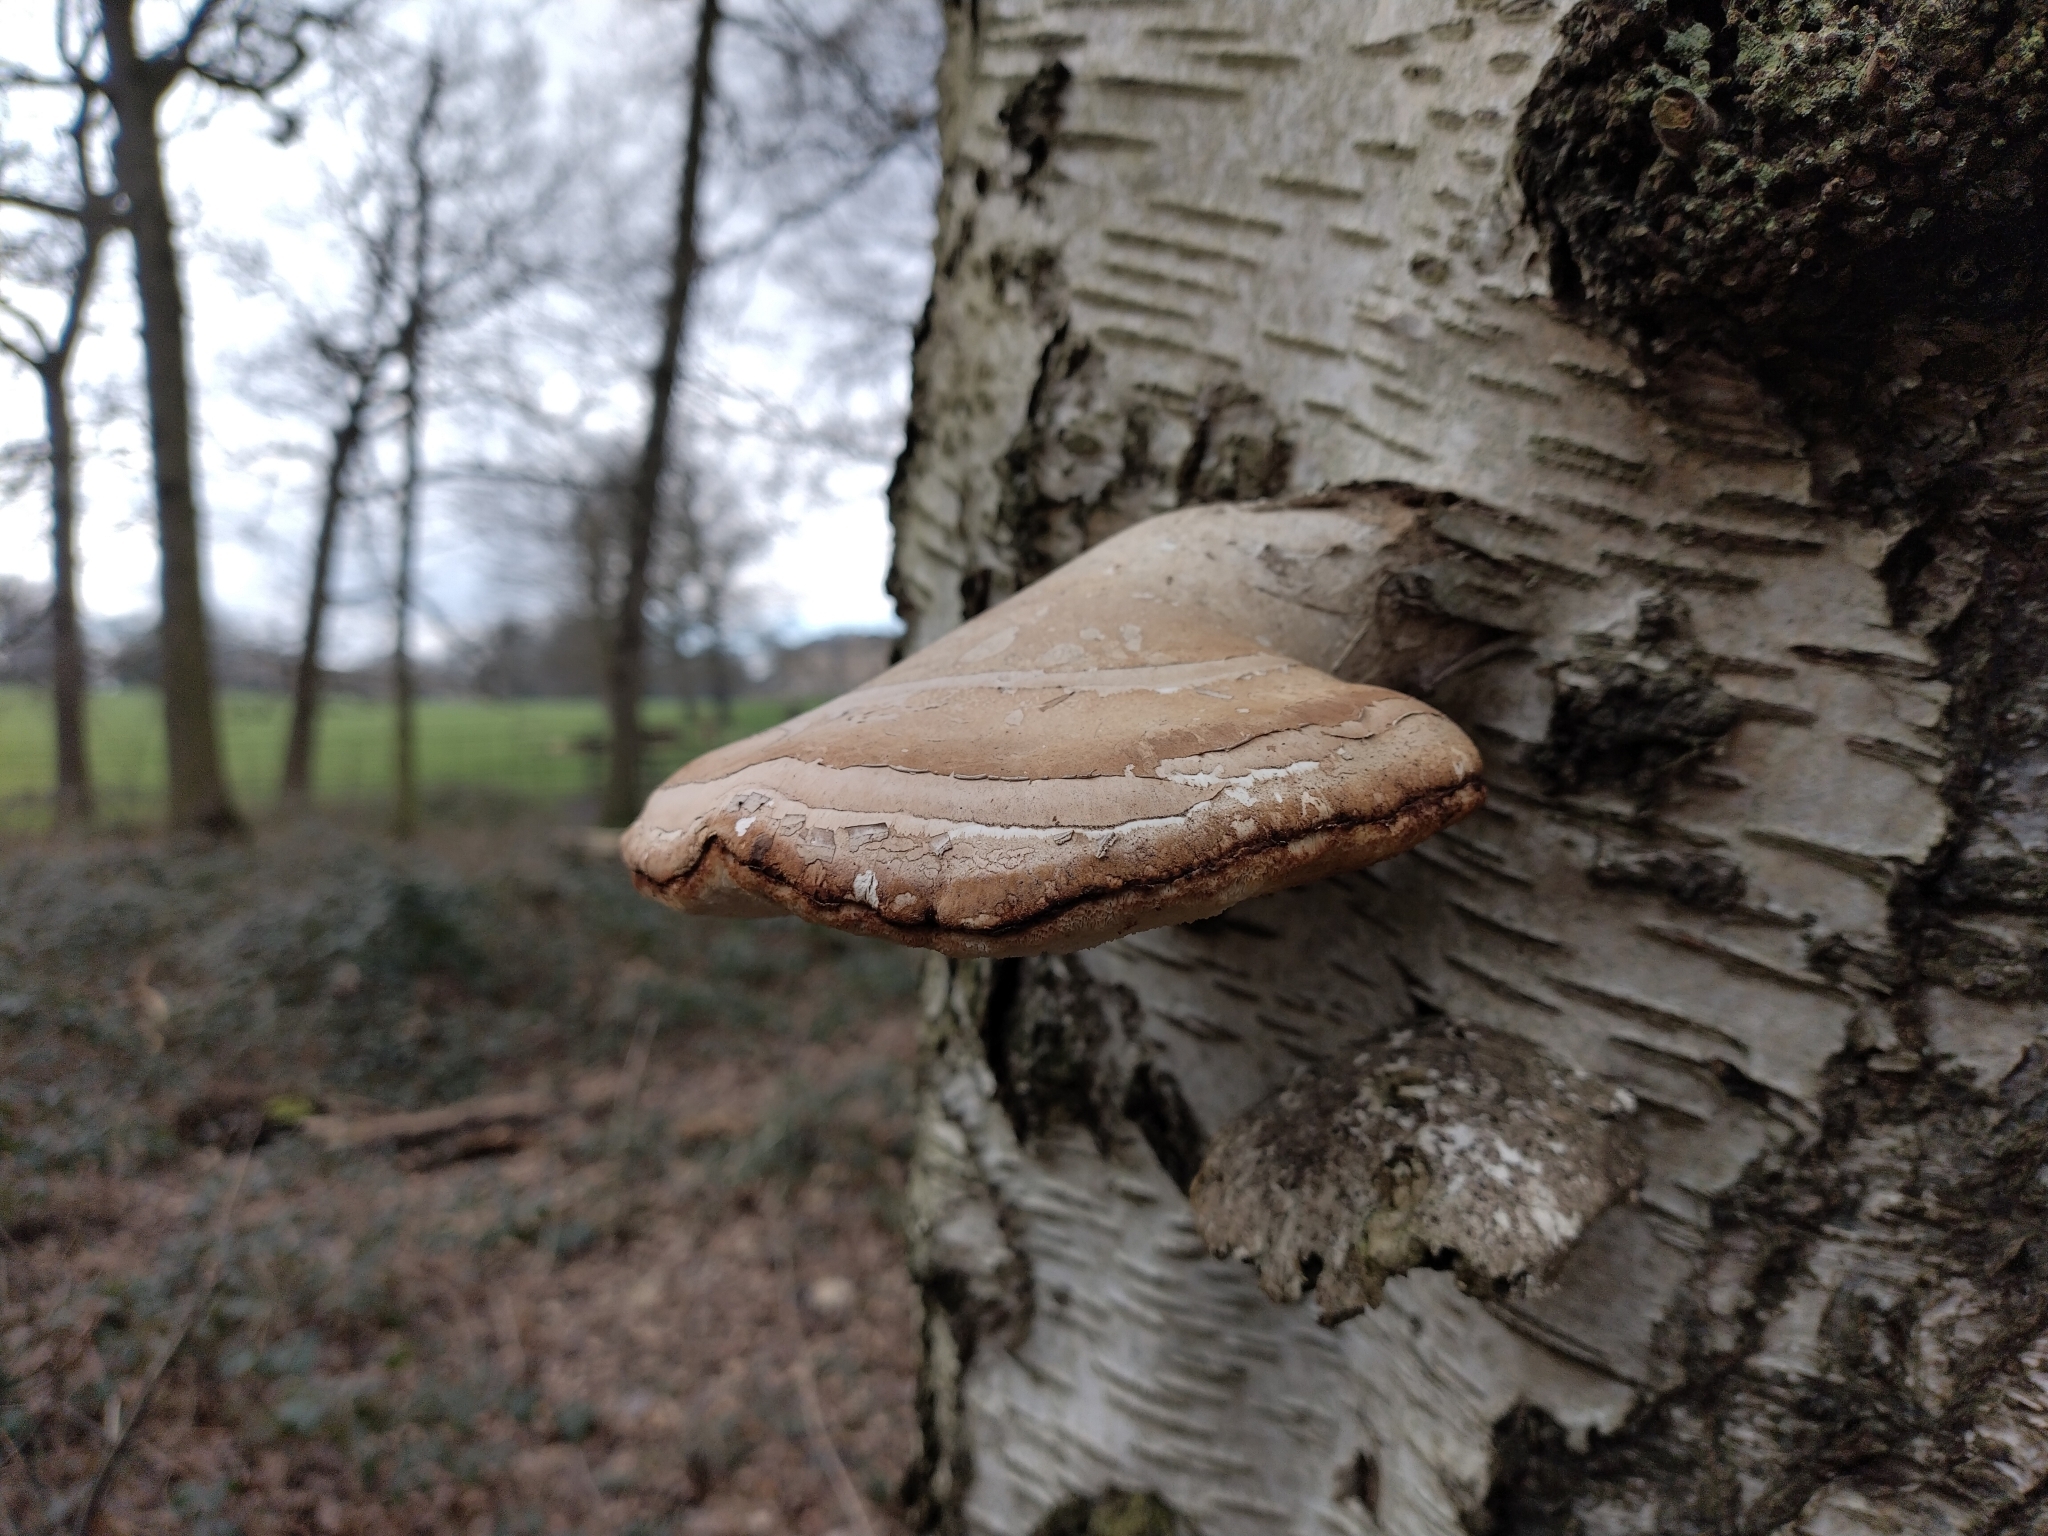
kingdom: Fungi
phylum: Basidiomycota
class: Agaricomycetes
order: Polyporales
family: Fomitopsidaceae
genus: Fomitopsis
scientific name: Fomitopsis betulina
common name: Birch polypore
